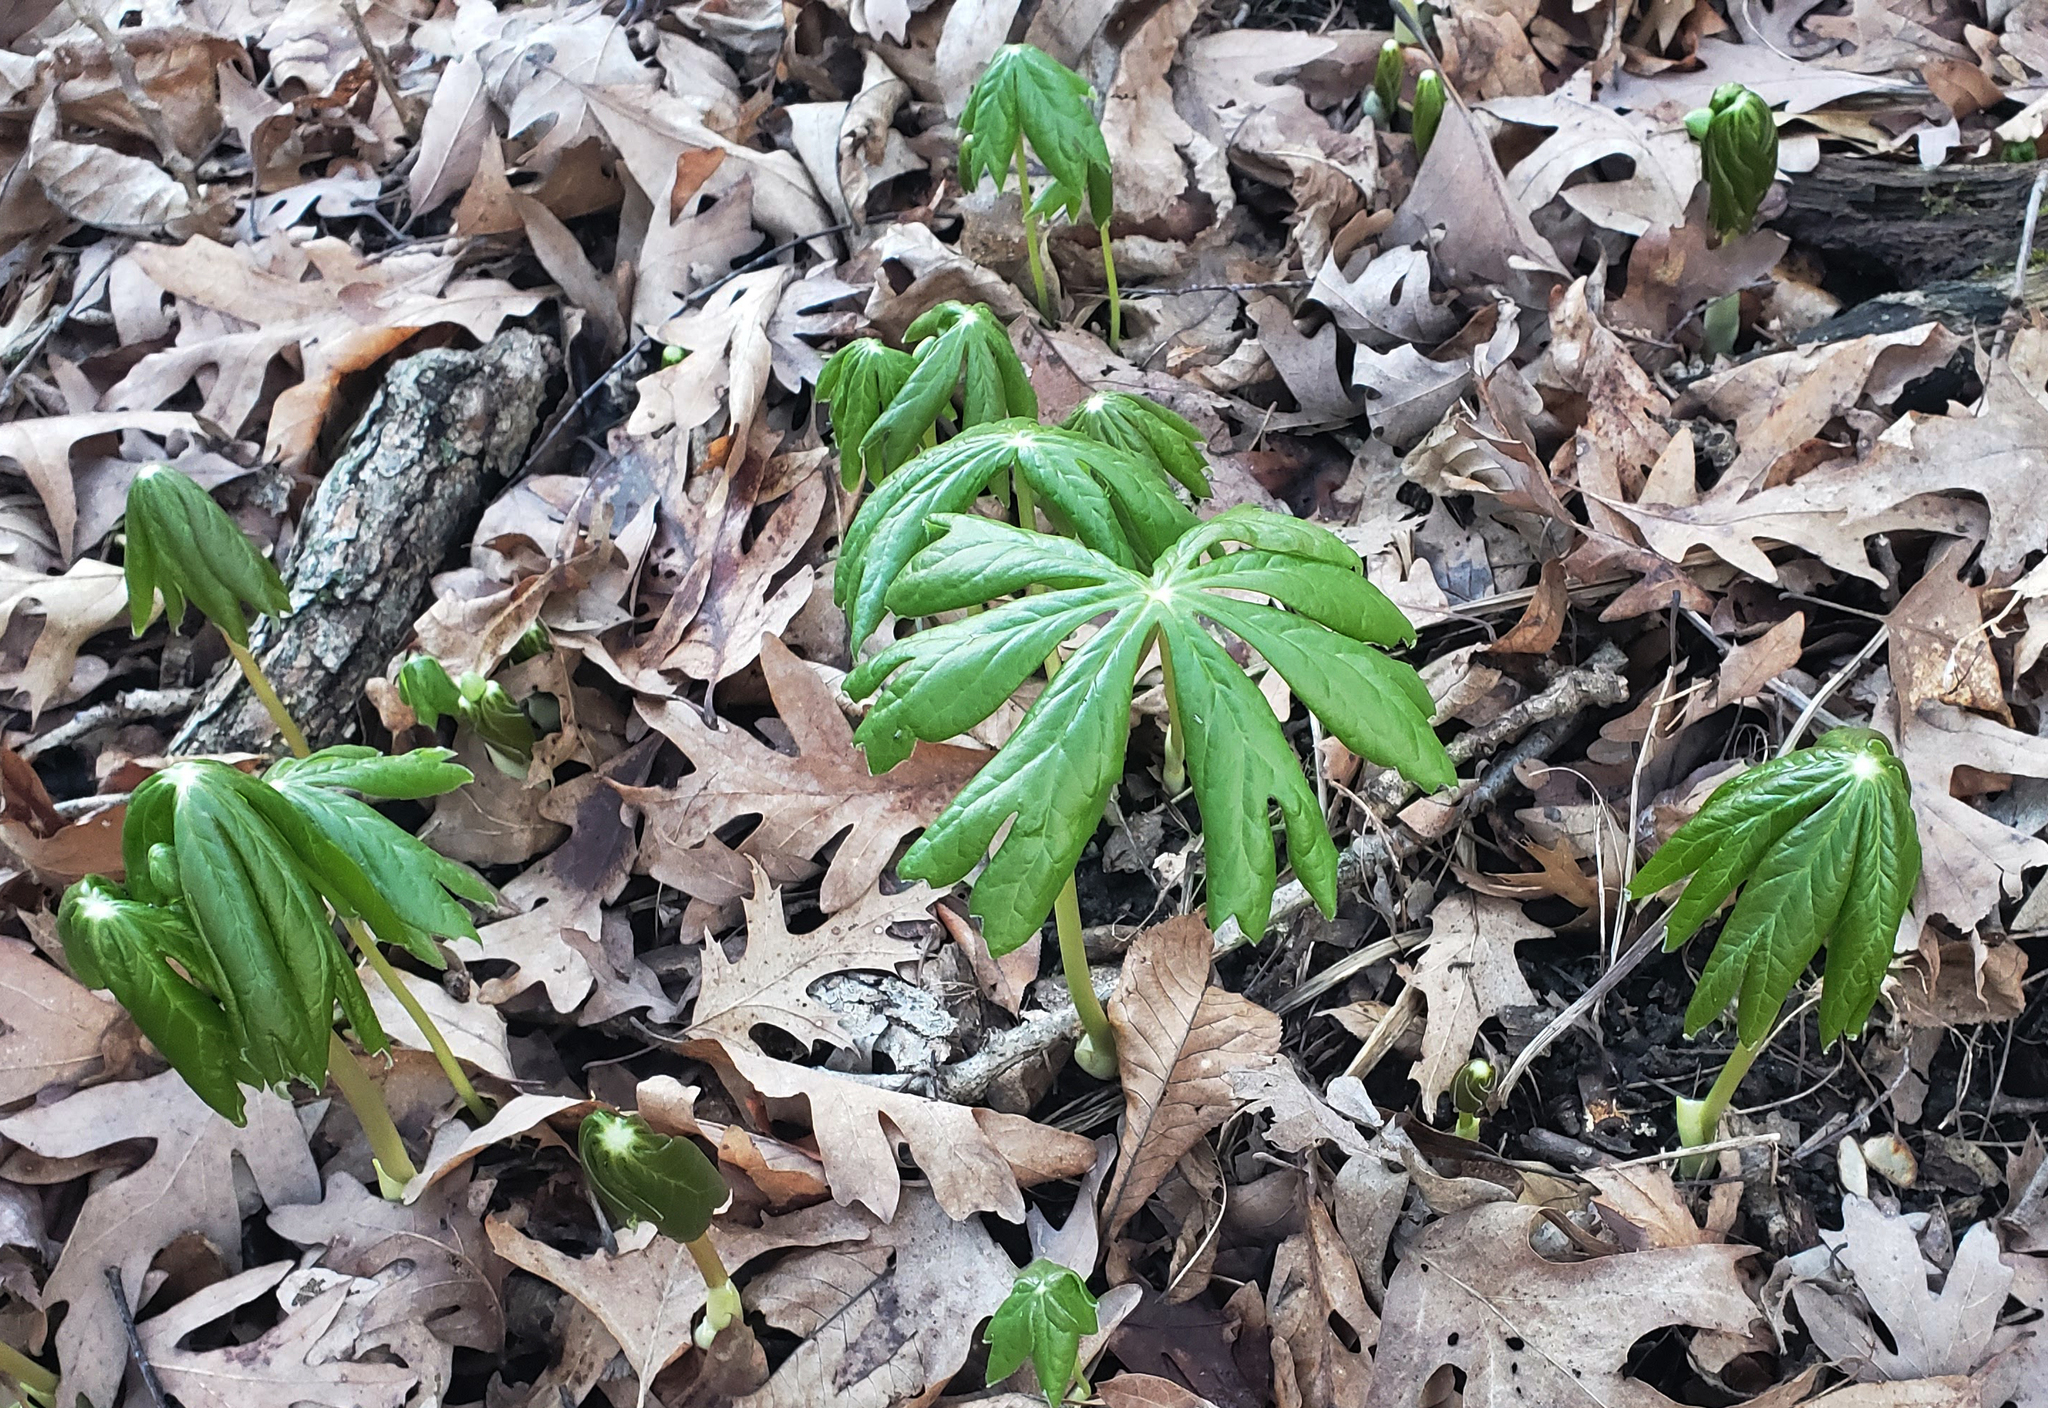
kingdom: Plantae
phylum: Tracheophyta
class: Magnoliopsida
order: Ranunculales
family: Berberidaceae
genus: Podophyllum
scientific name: Podophyllum peltatum
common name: Wild mandrake
